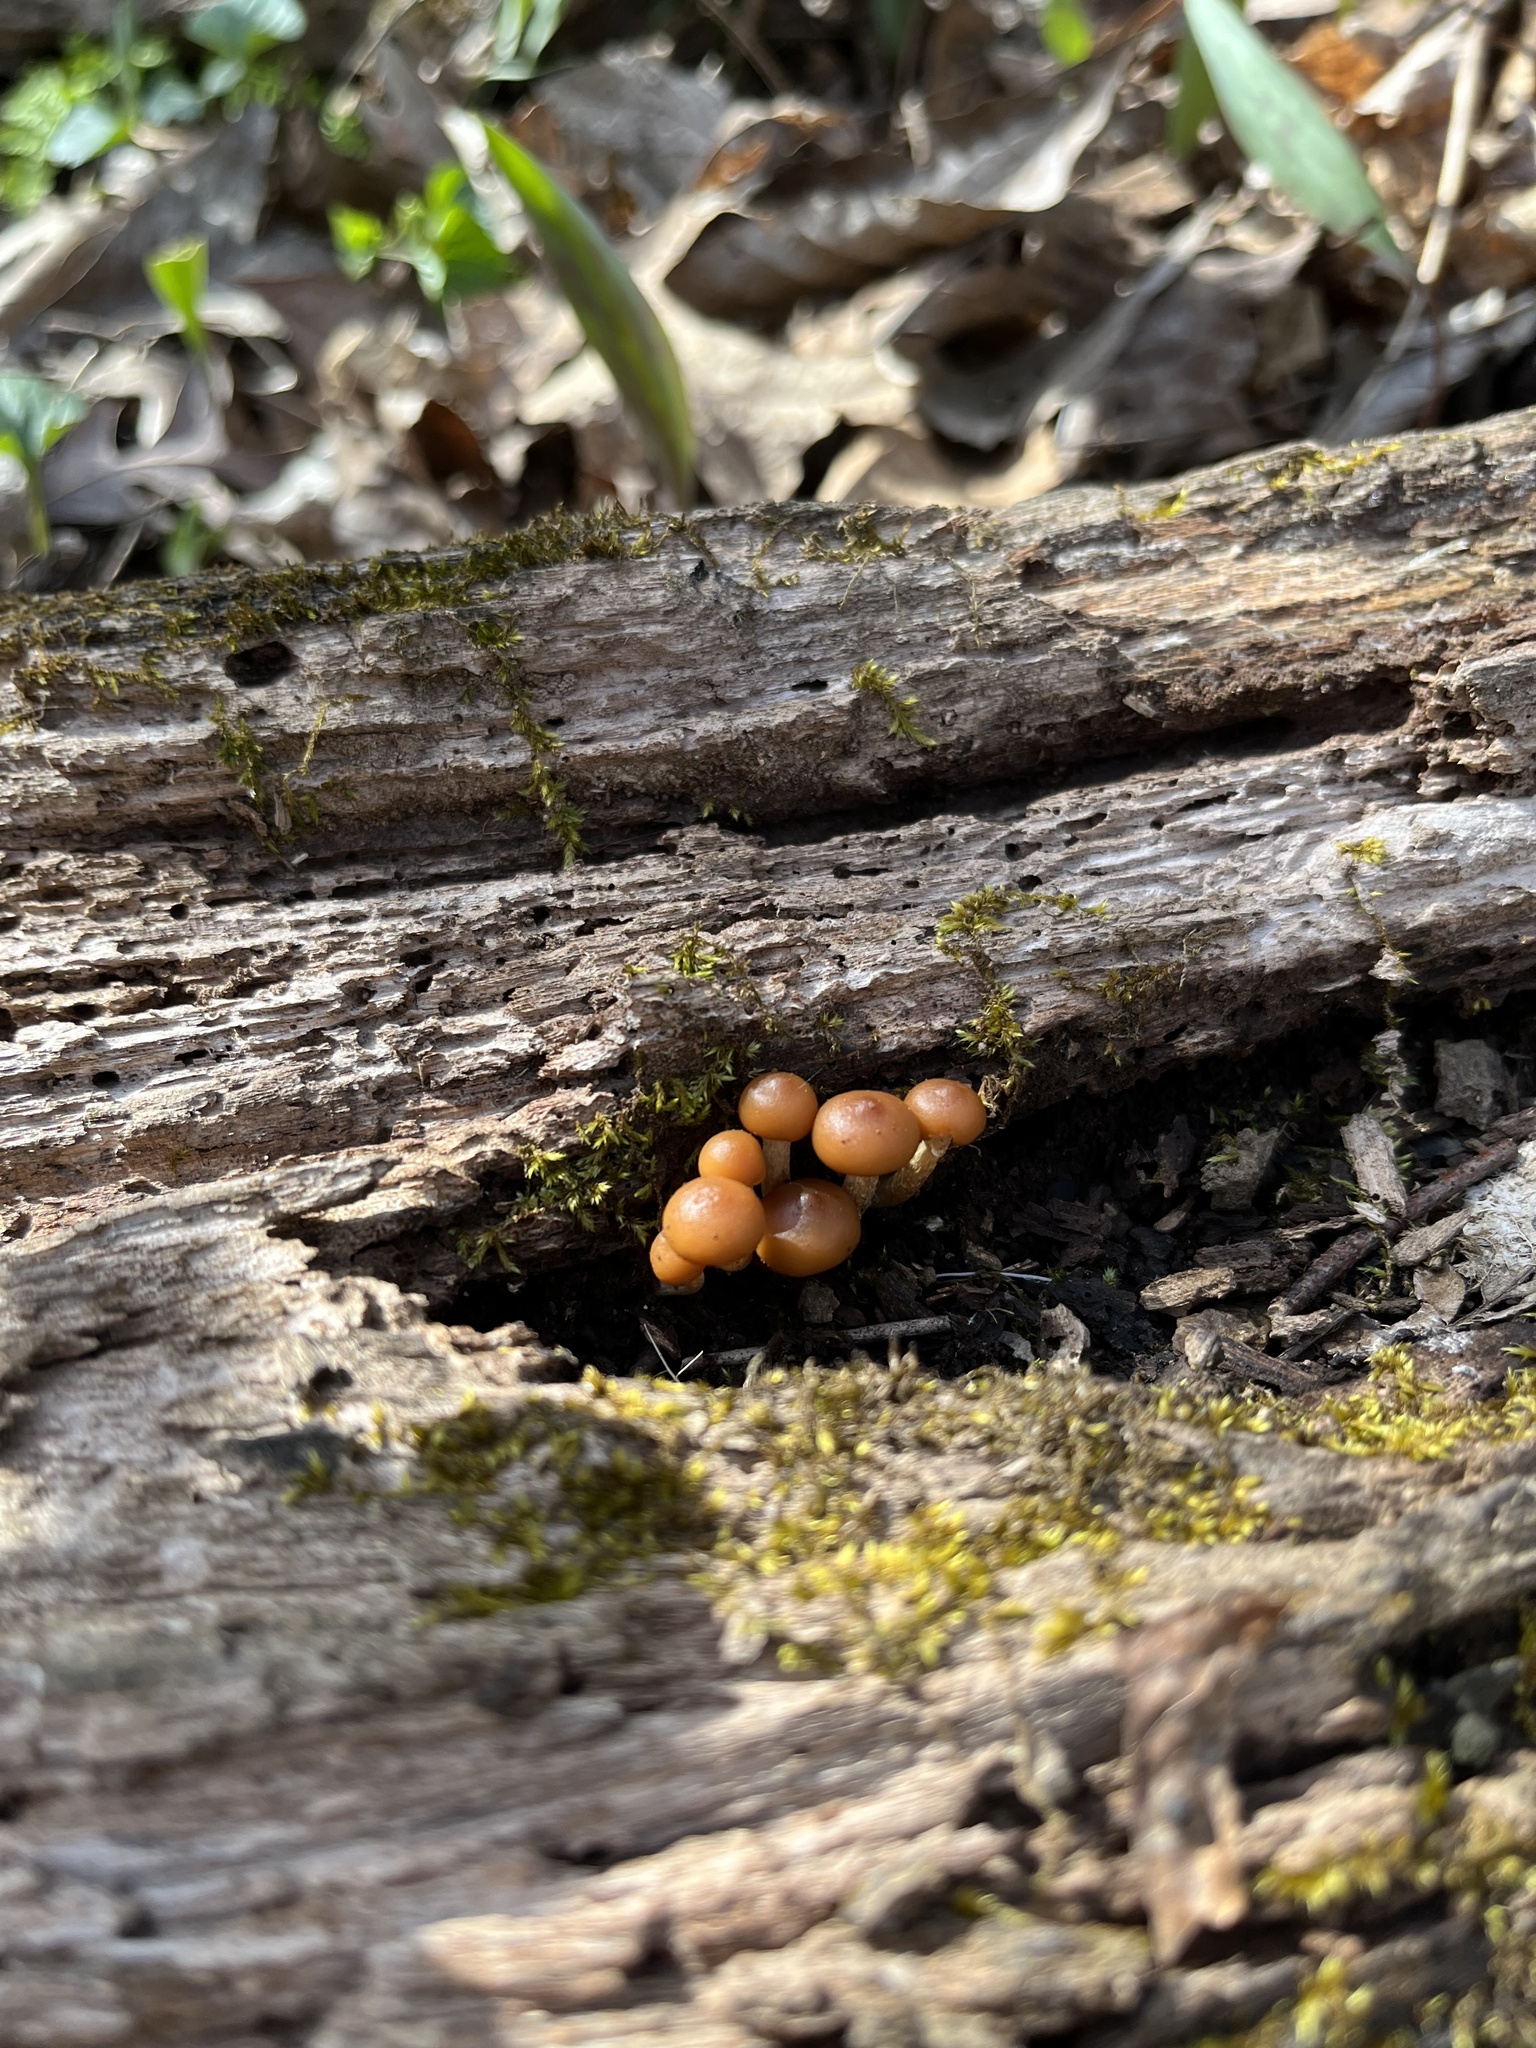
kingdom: Fungi
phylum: Basidiomycota
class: Agaricomycetes
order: Agaricales
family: Hymenogastraceae
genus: Galerina
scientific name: Galerina marginata
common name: Funeral bell
